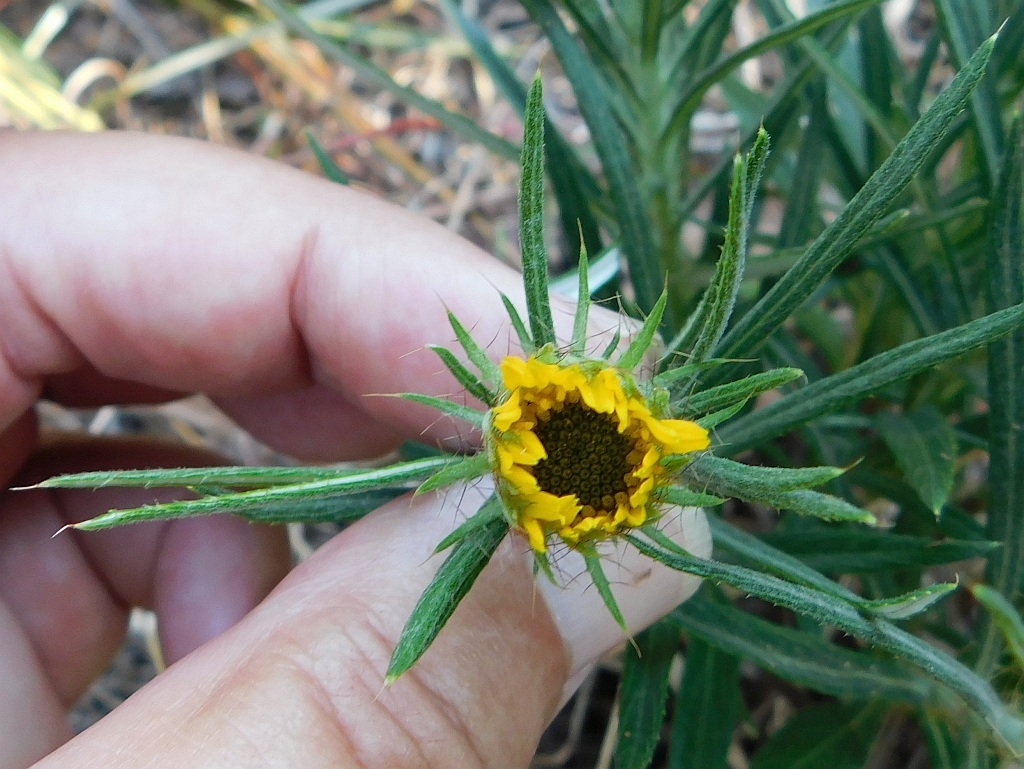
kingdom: Plantae
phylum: Tracheophyta
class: Magnoliopsida
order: Asterales
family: Asteraceae
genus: Berkheya
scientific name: Berkheya zeyheri
